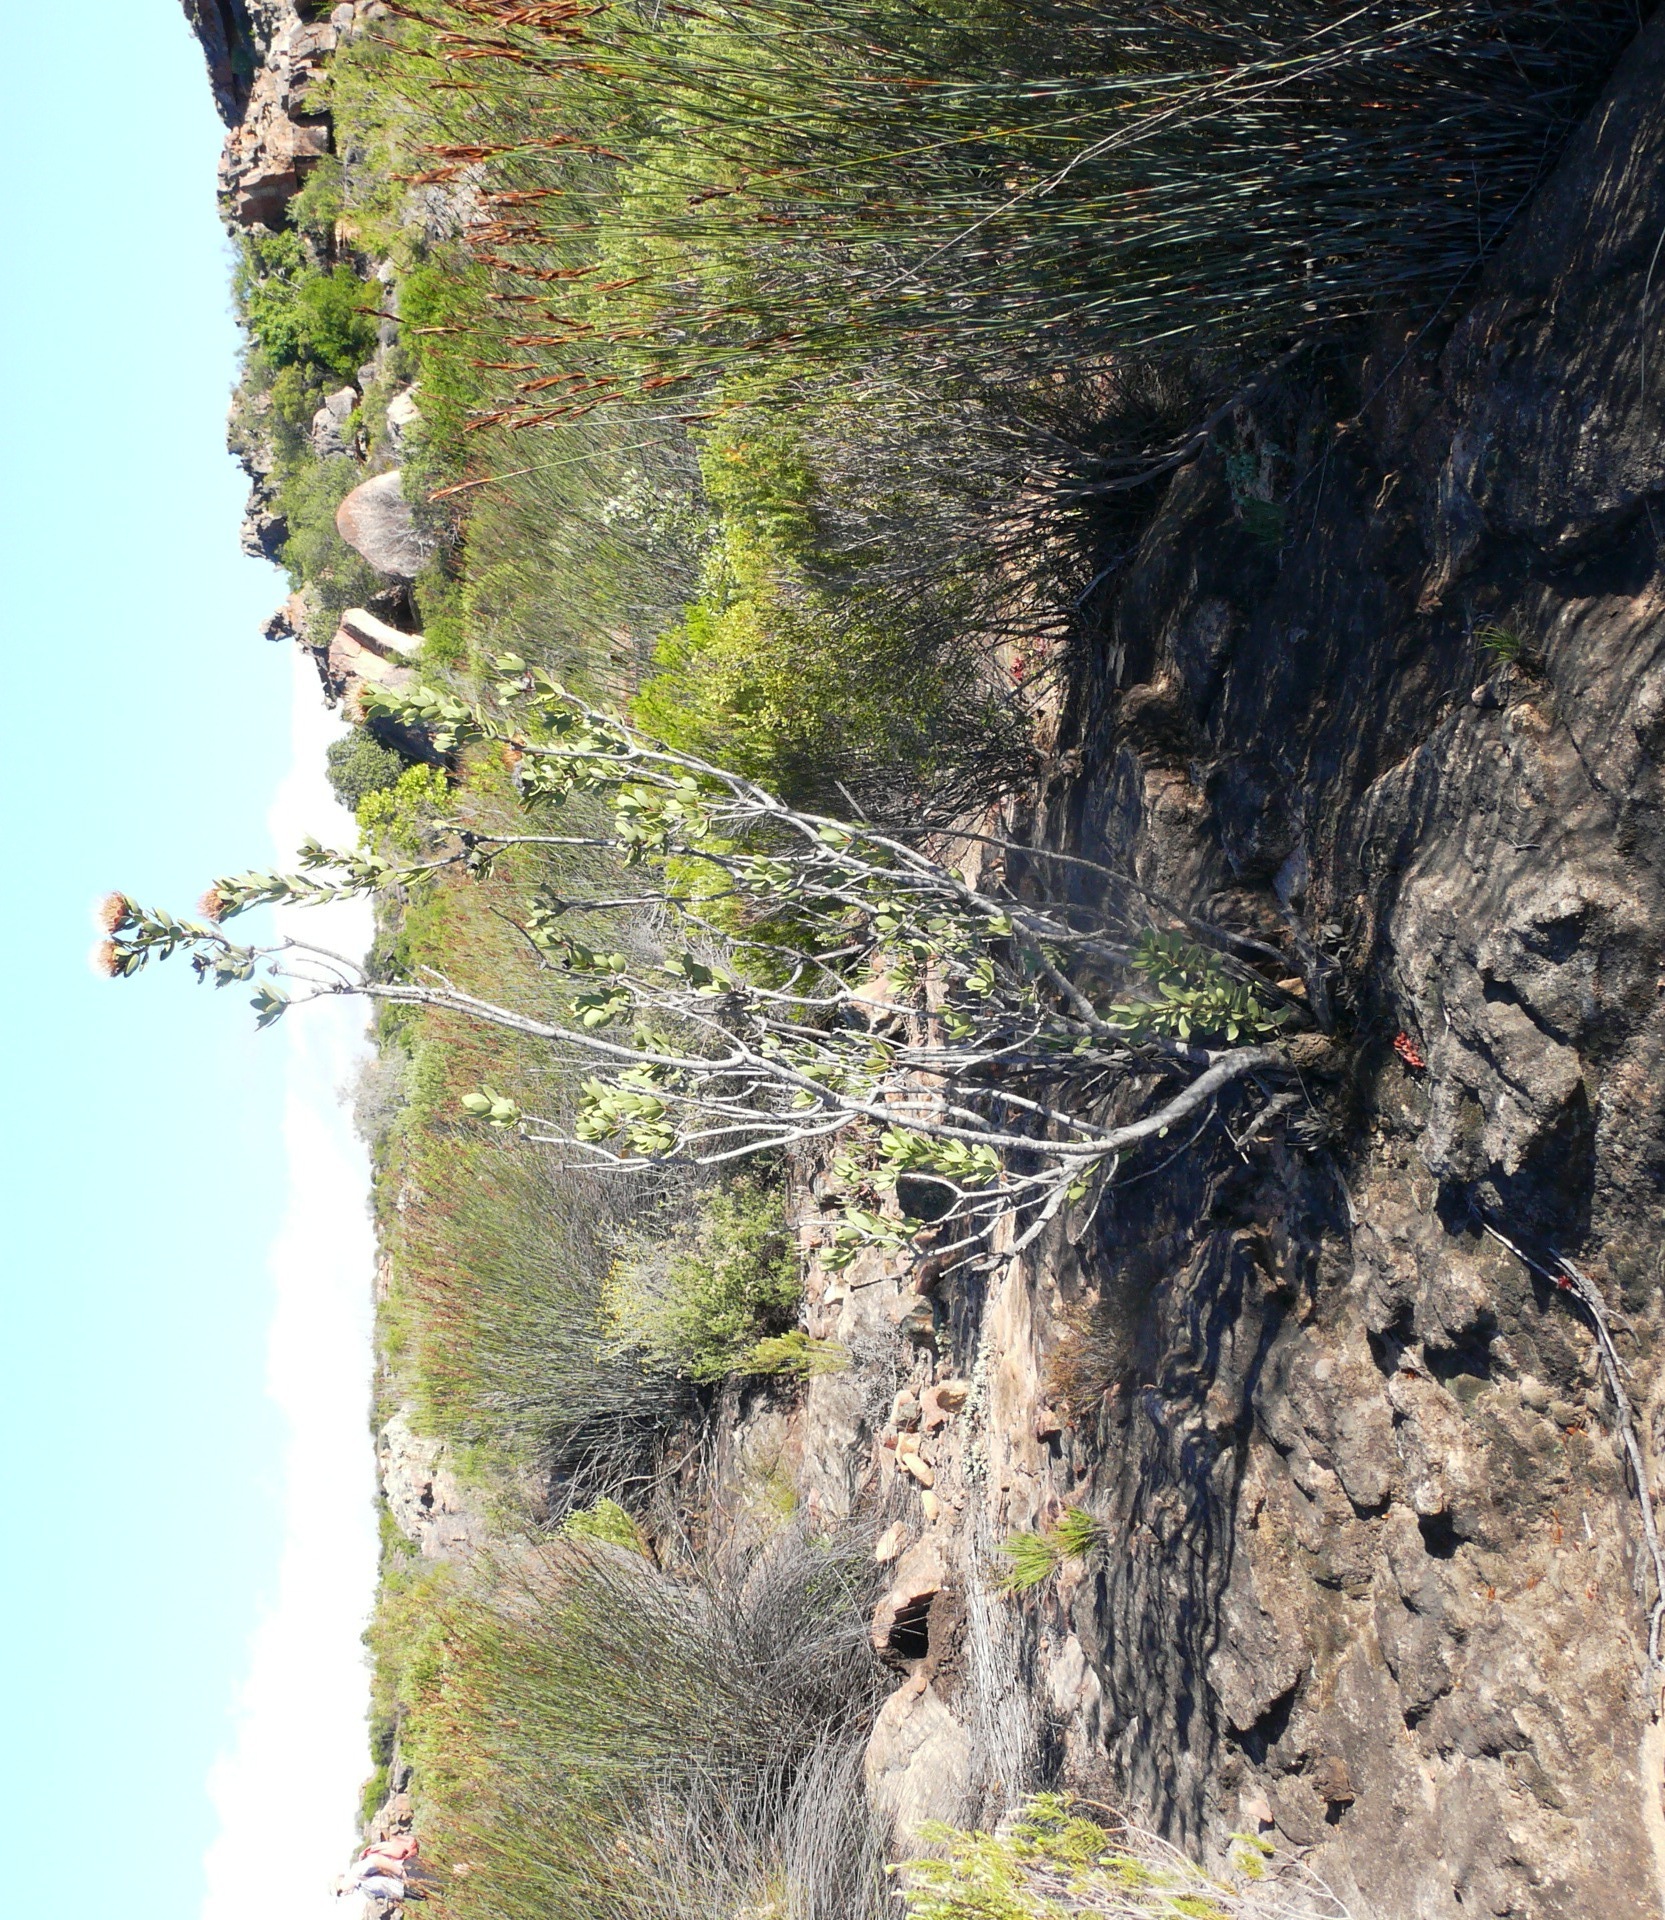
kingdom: Plantae
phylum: Tracheophyta
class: Magnoliopsida
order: Proteales
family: Proteaceae
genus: Protea
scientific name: Protea glabra
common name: Chestnut sugarbush
